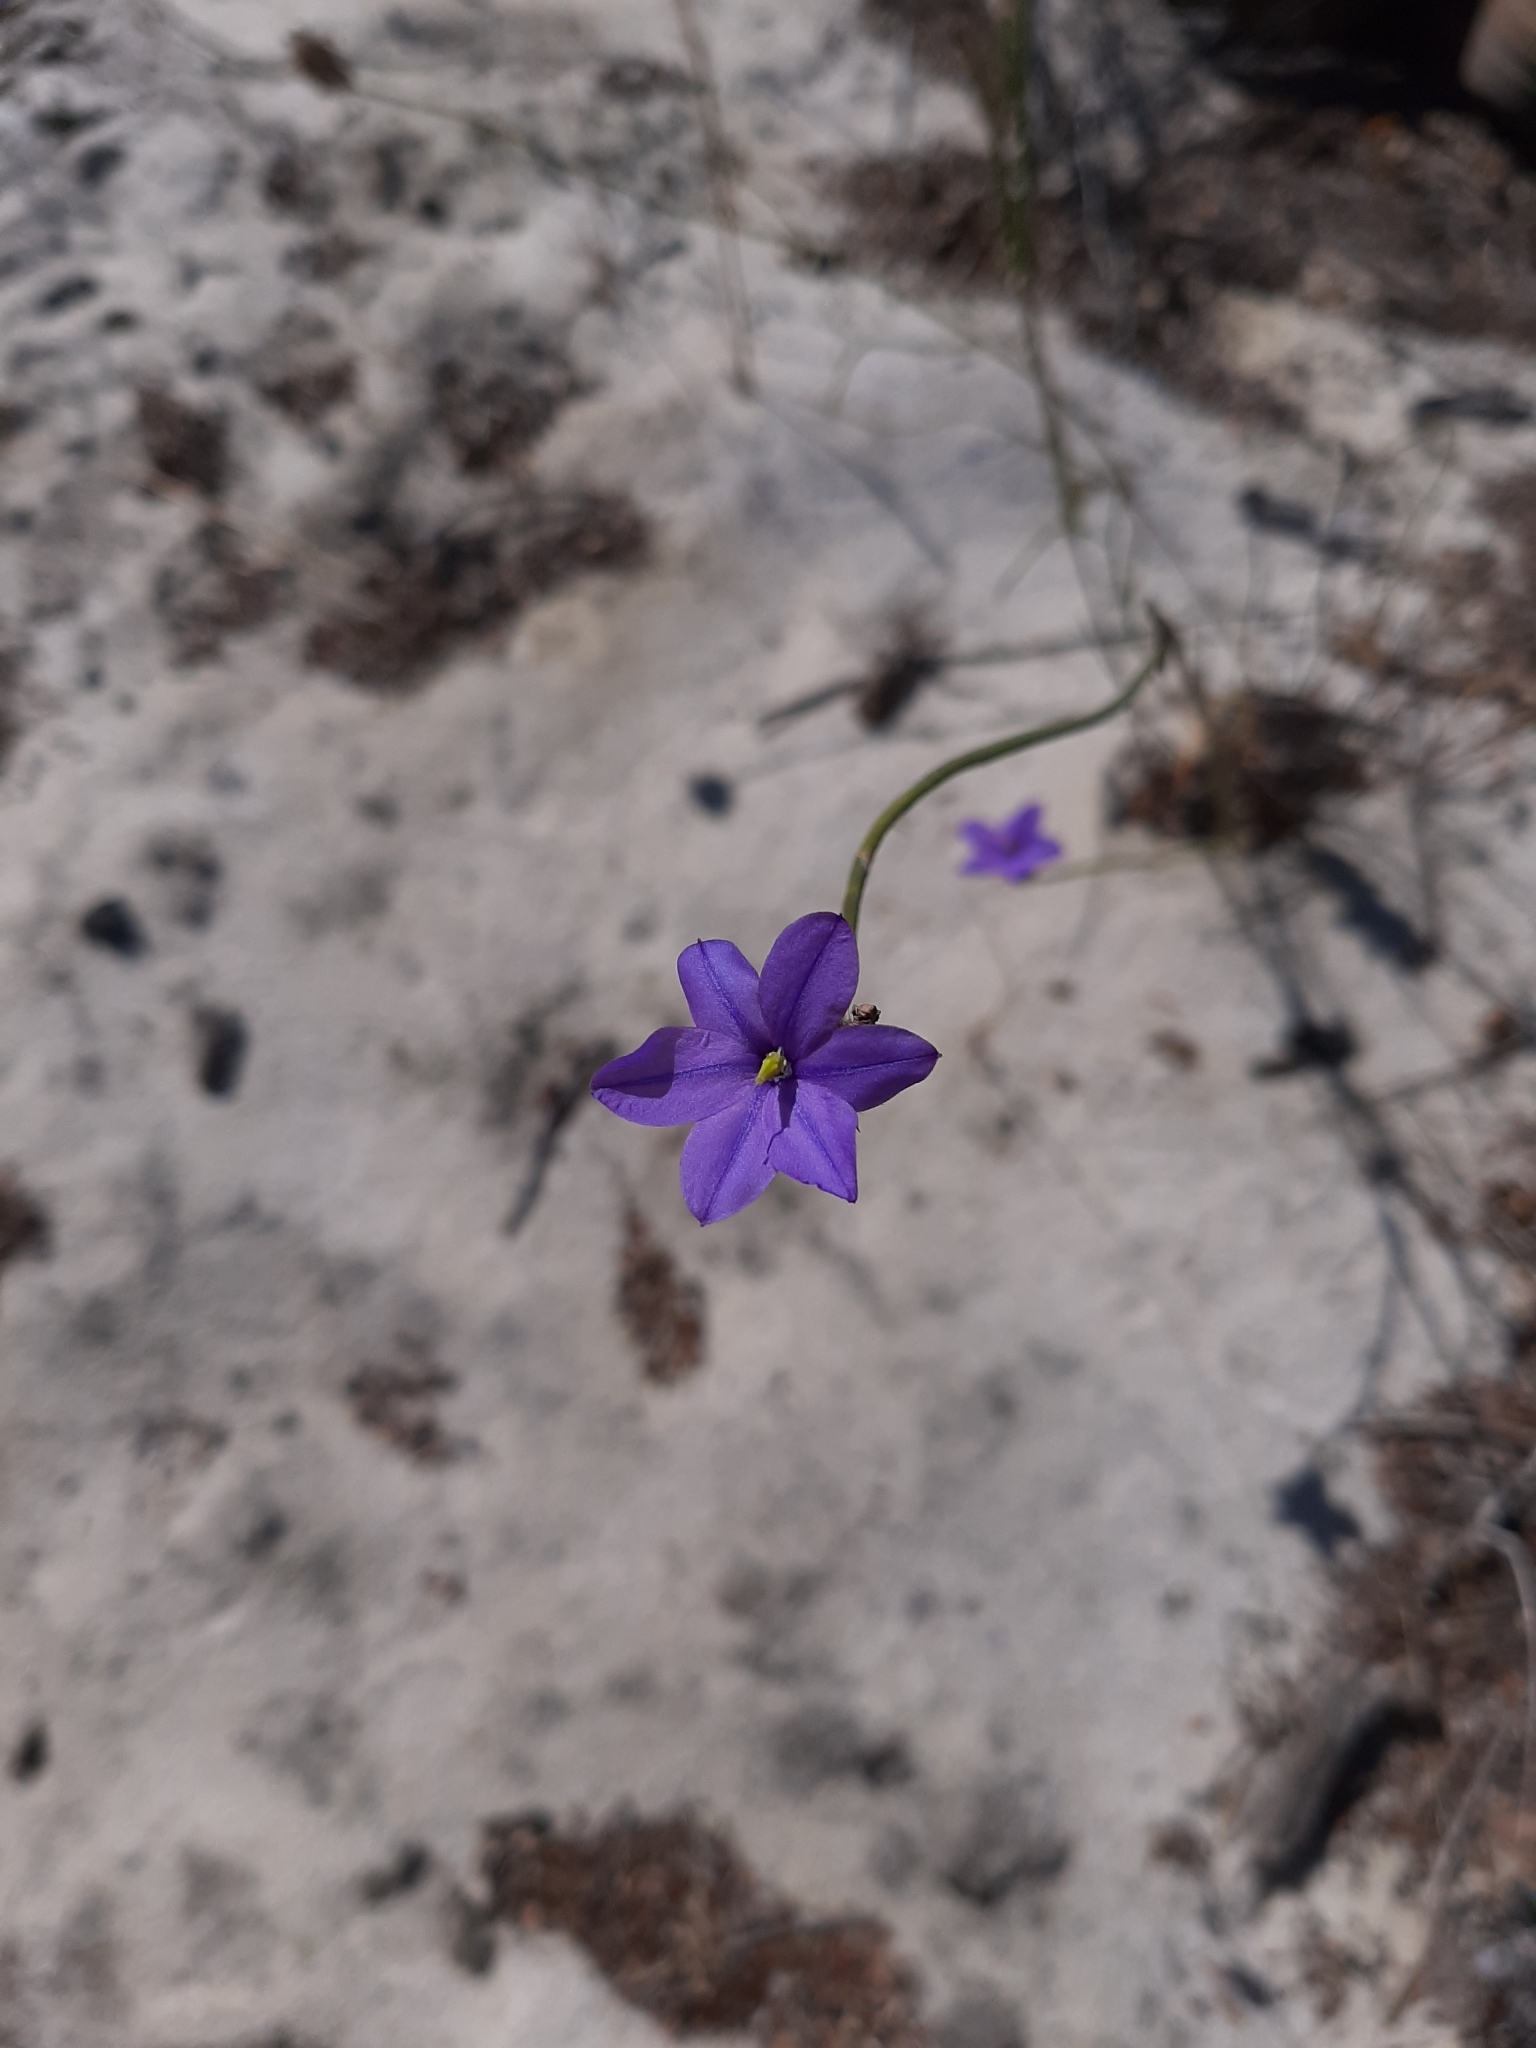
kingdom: Plantae
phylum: Tracheophyta
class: Liliopsida
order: Asparagales
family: Asphodelaceae
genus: Arnocrinum
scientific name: Arnocrinum preisii
